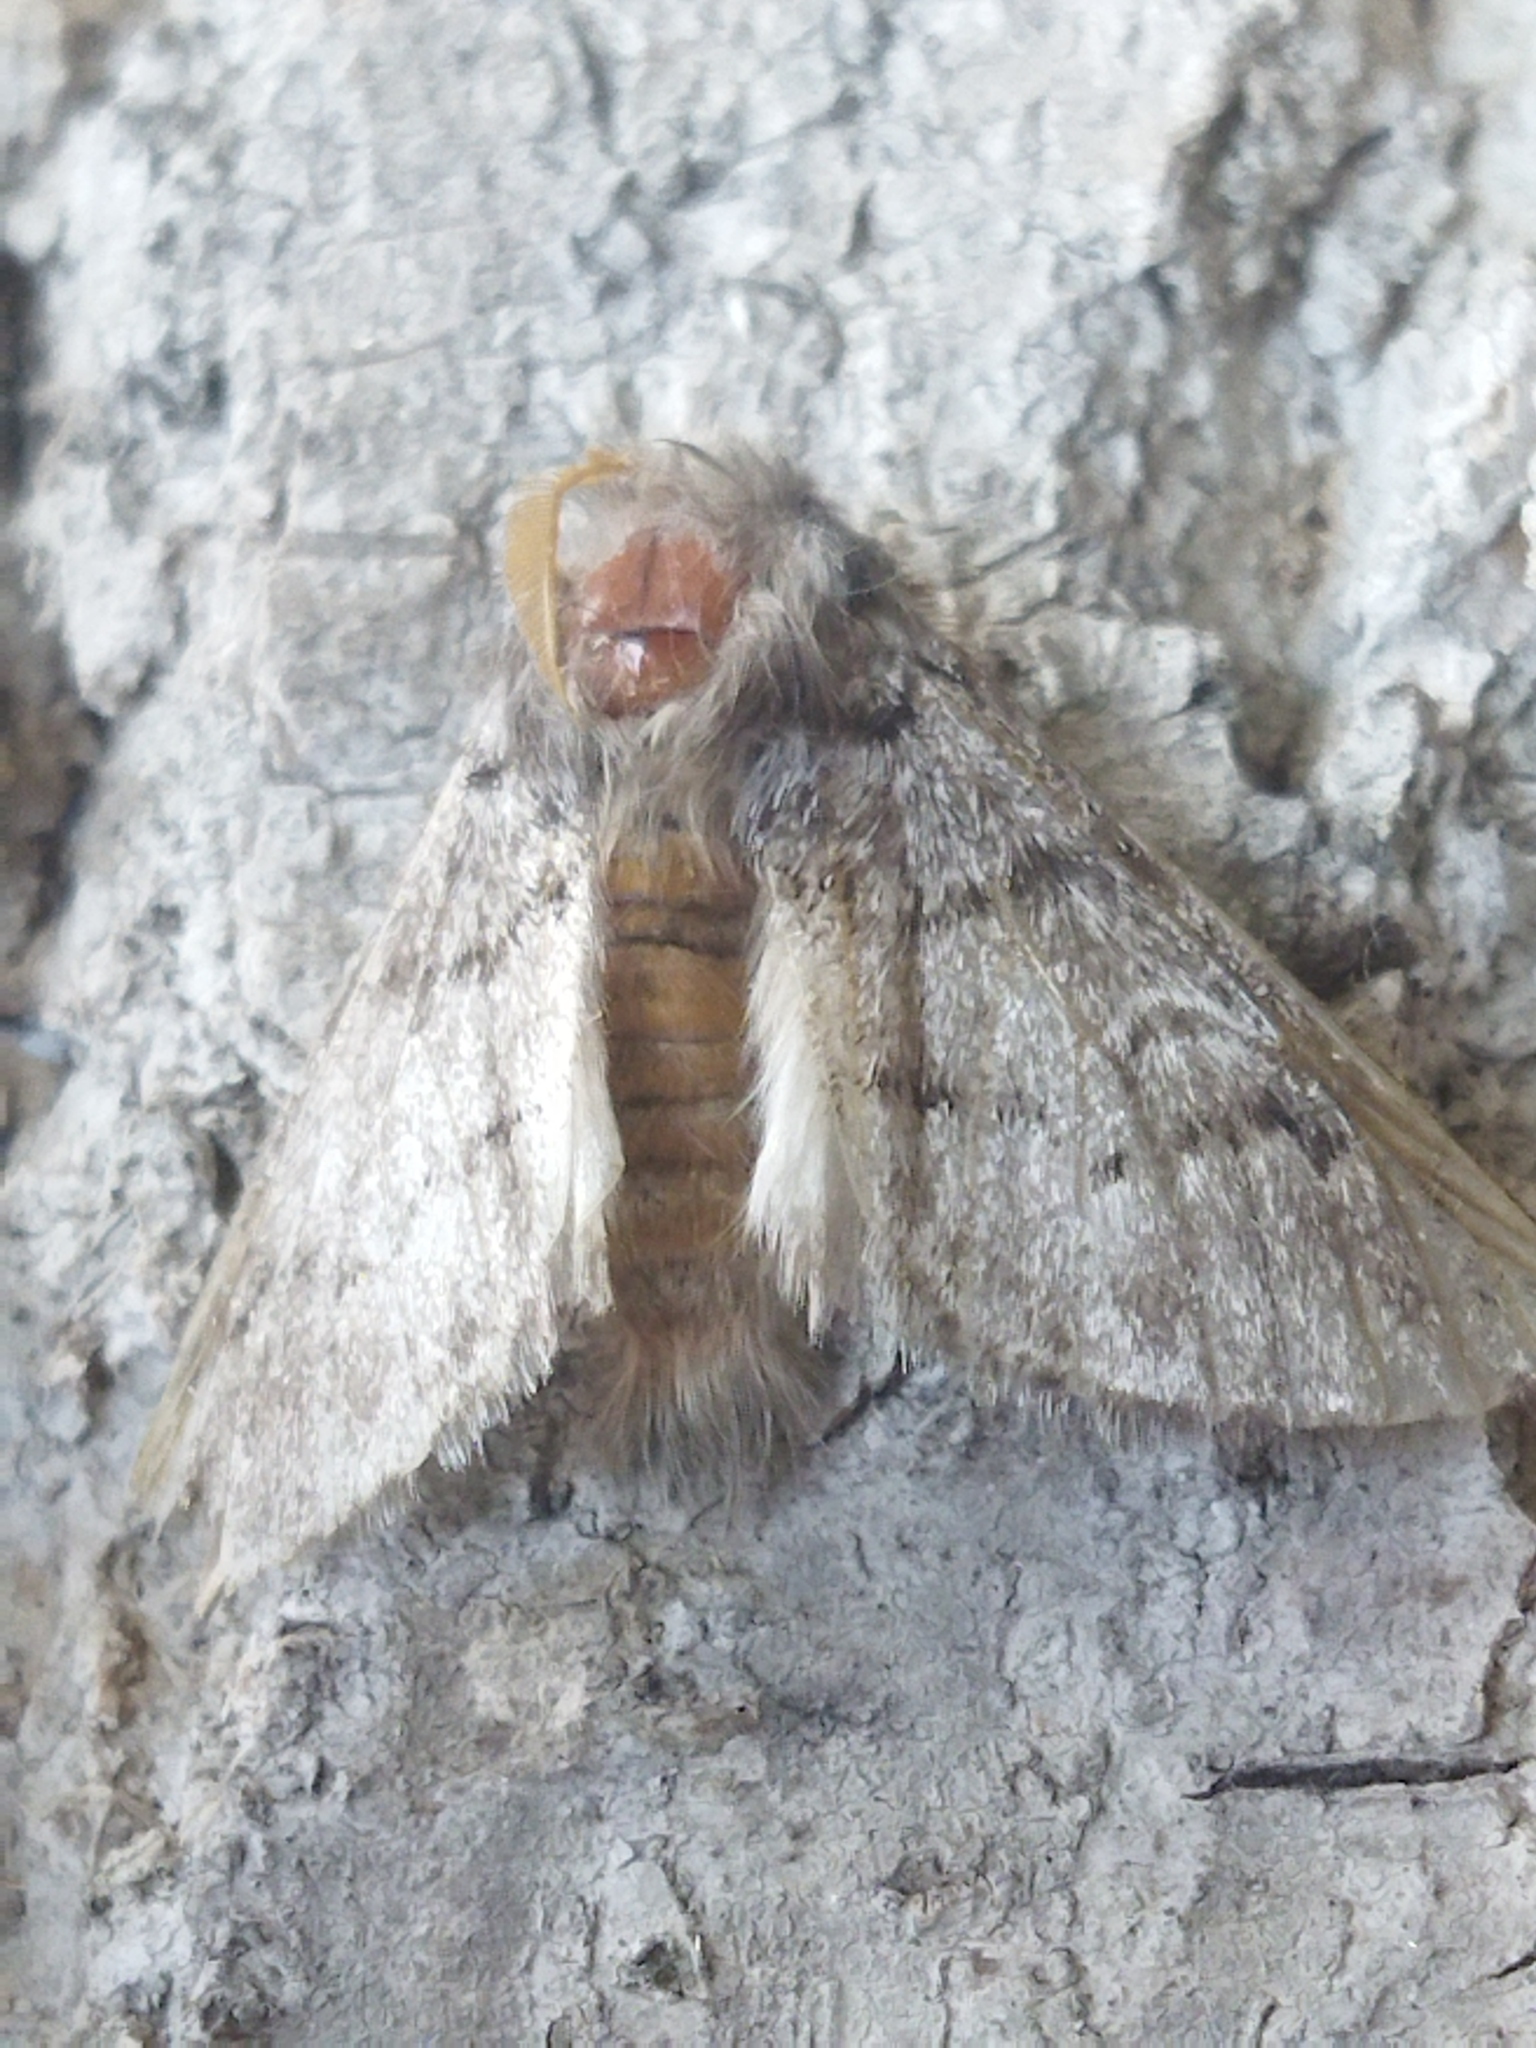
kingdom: Animalia
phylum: Arthropoda
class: Insecta
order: Lepidoptera
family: Notodontidae
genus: Thaumetopoea
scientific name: Thaumetopoea pityocampa
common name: Pine processionary
